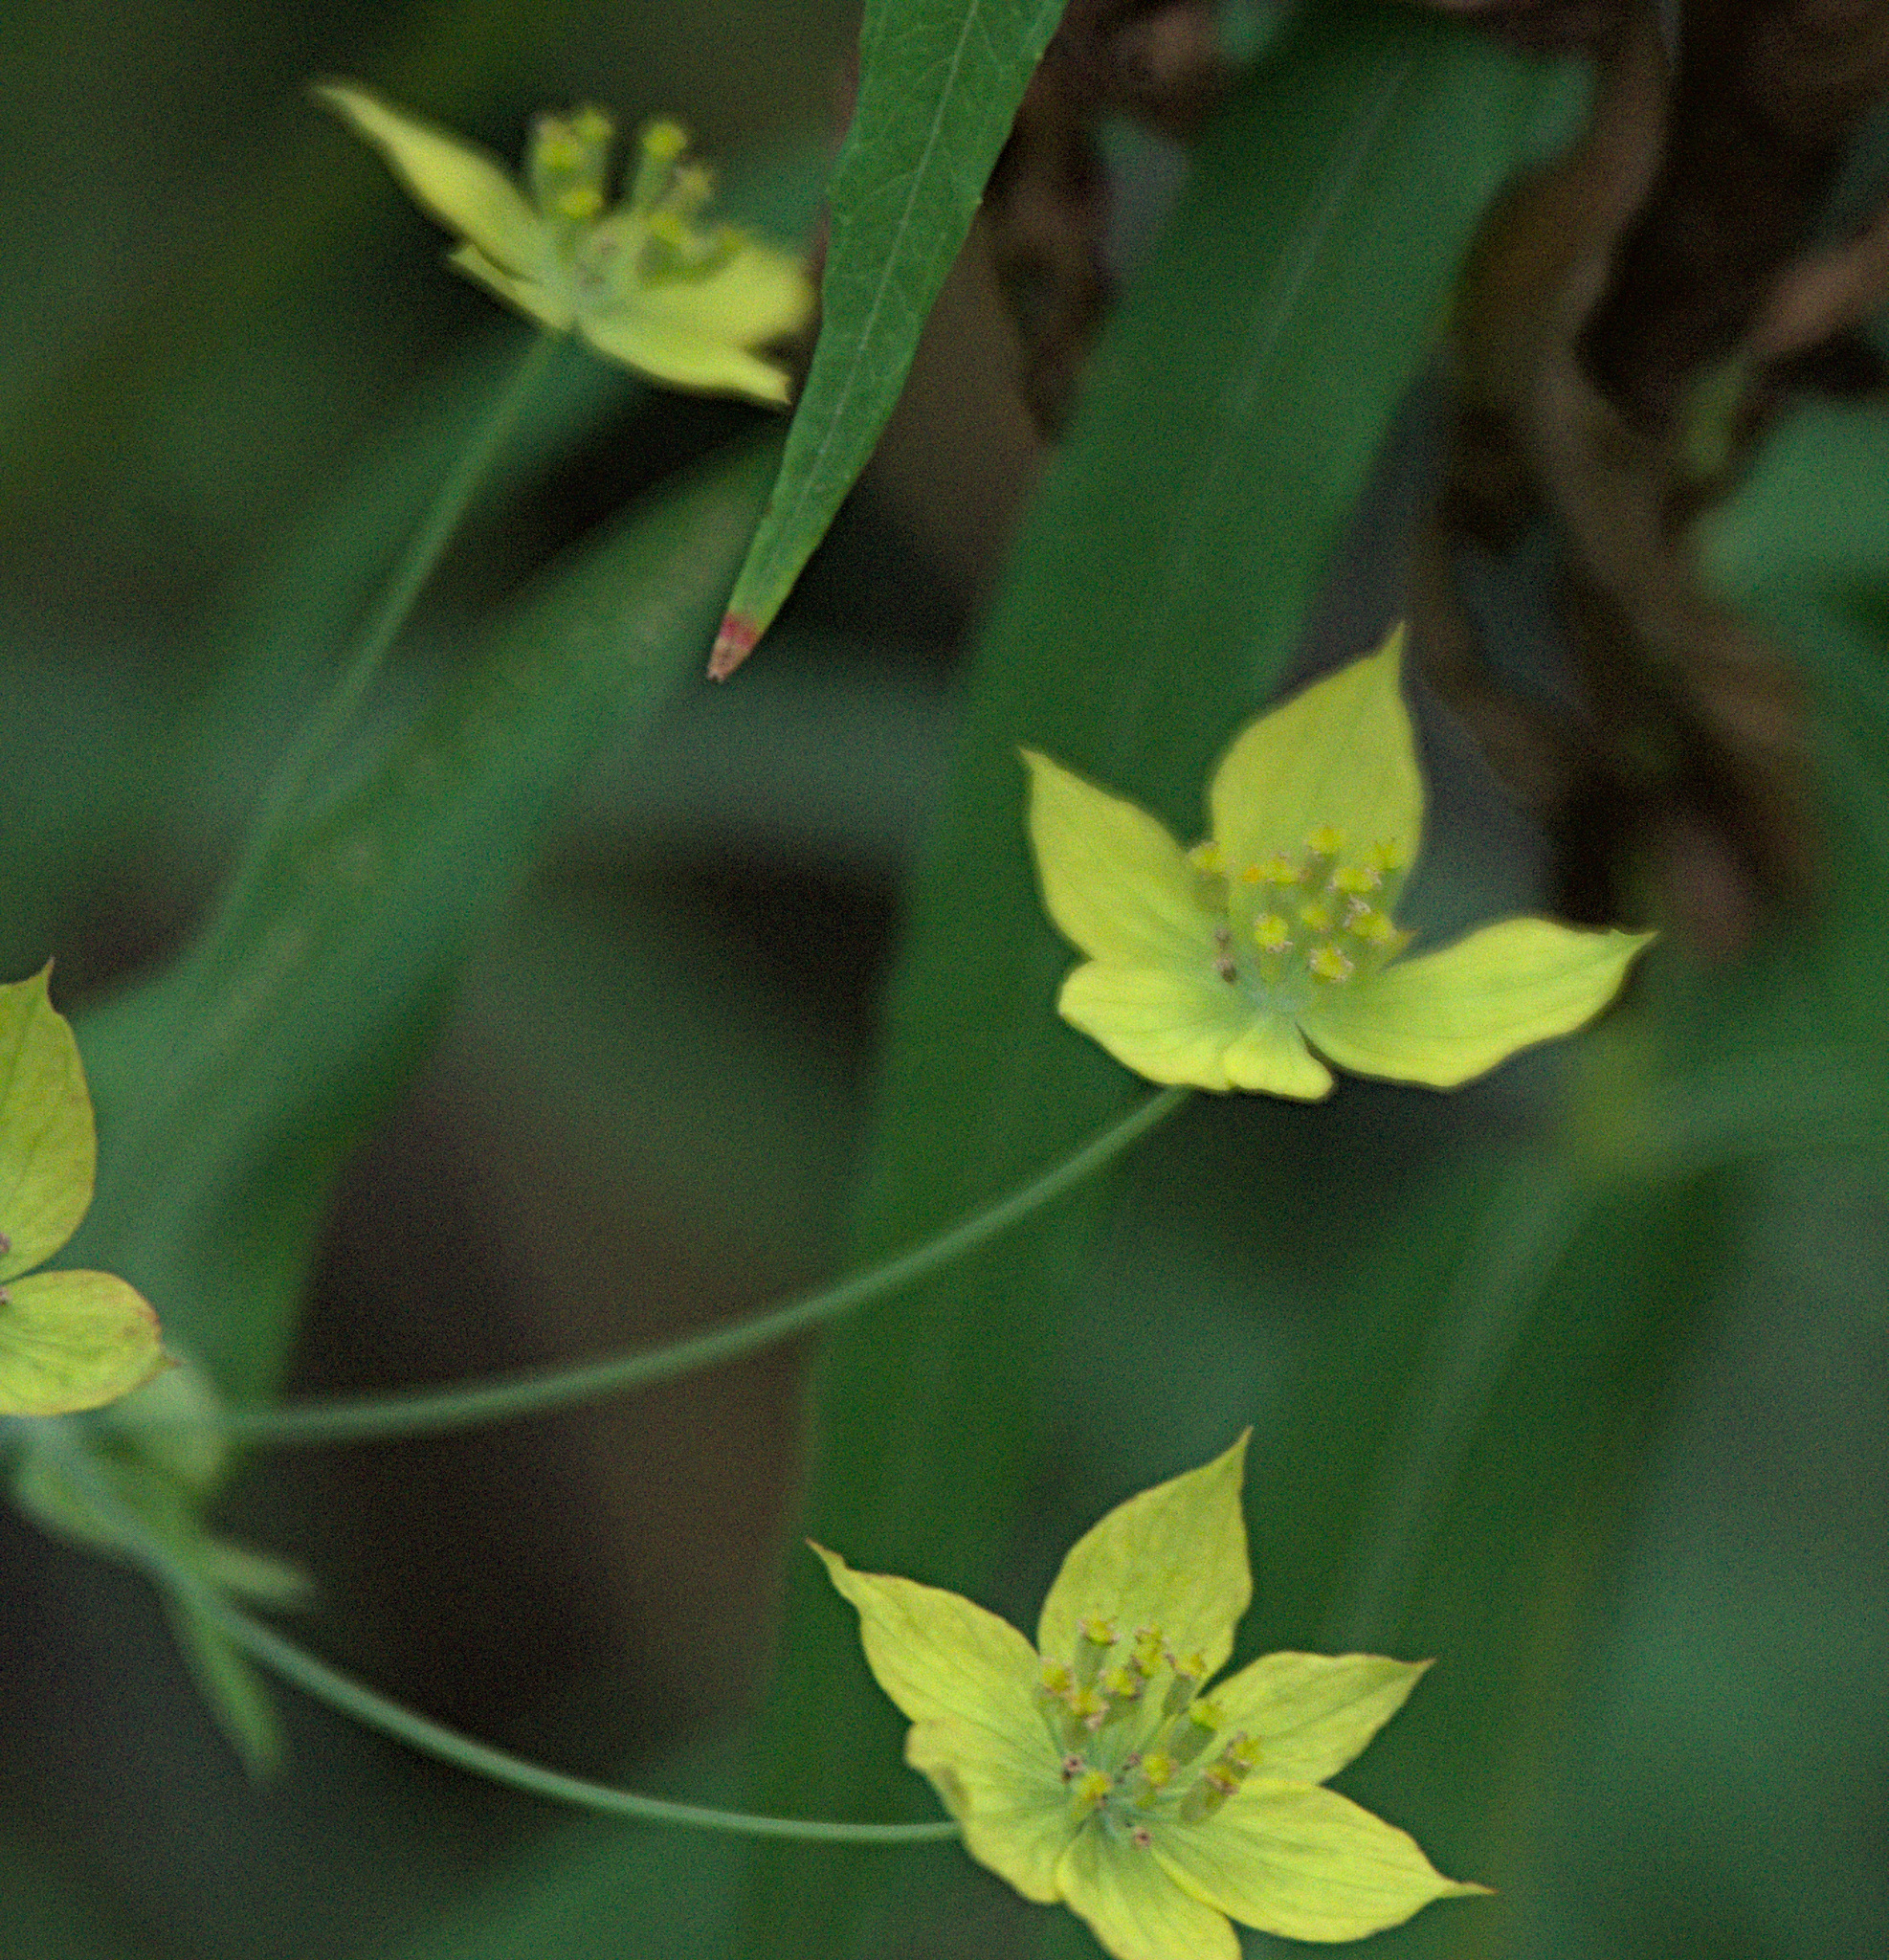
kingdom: Plantae
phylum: Tracheophyta
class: Magnoliopsida
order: Apiales
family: Apiaceae
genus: Bupleurum
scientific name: Bupleurum multinerve
